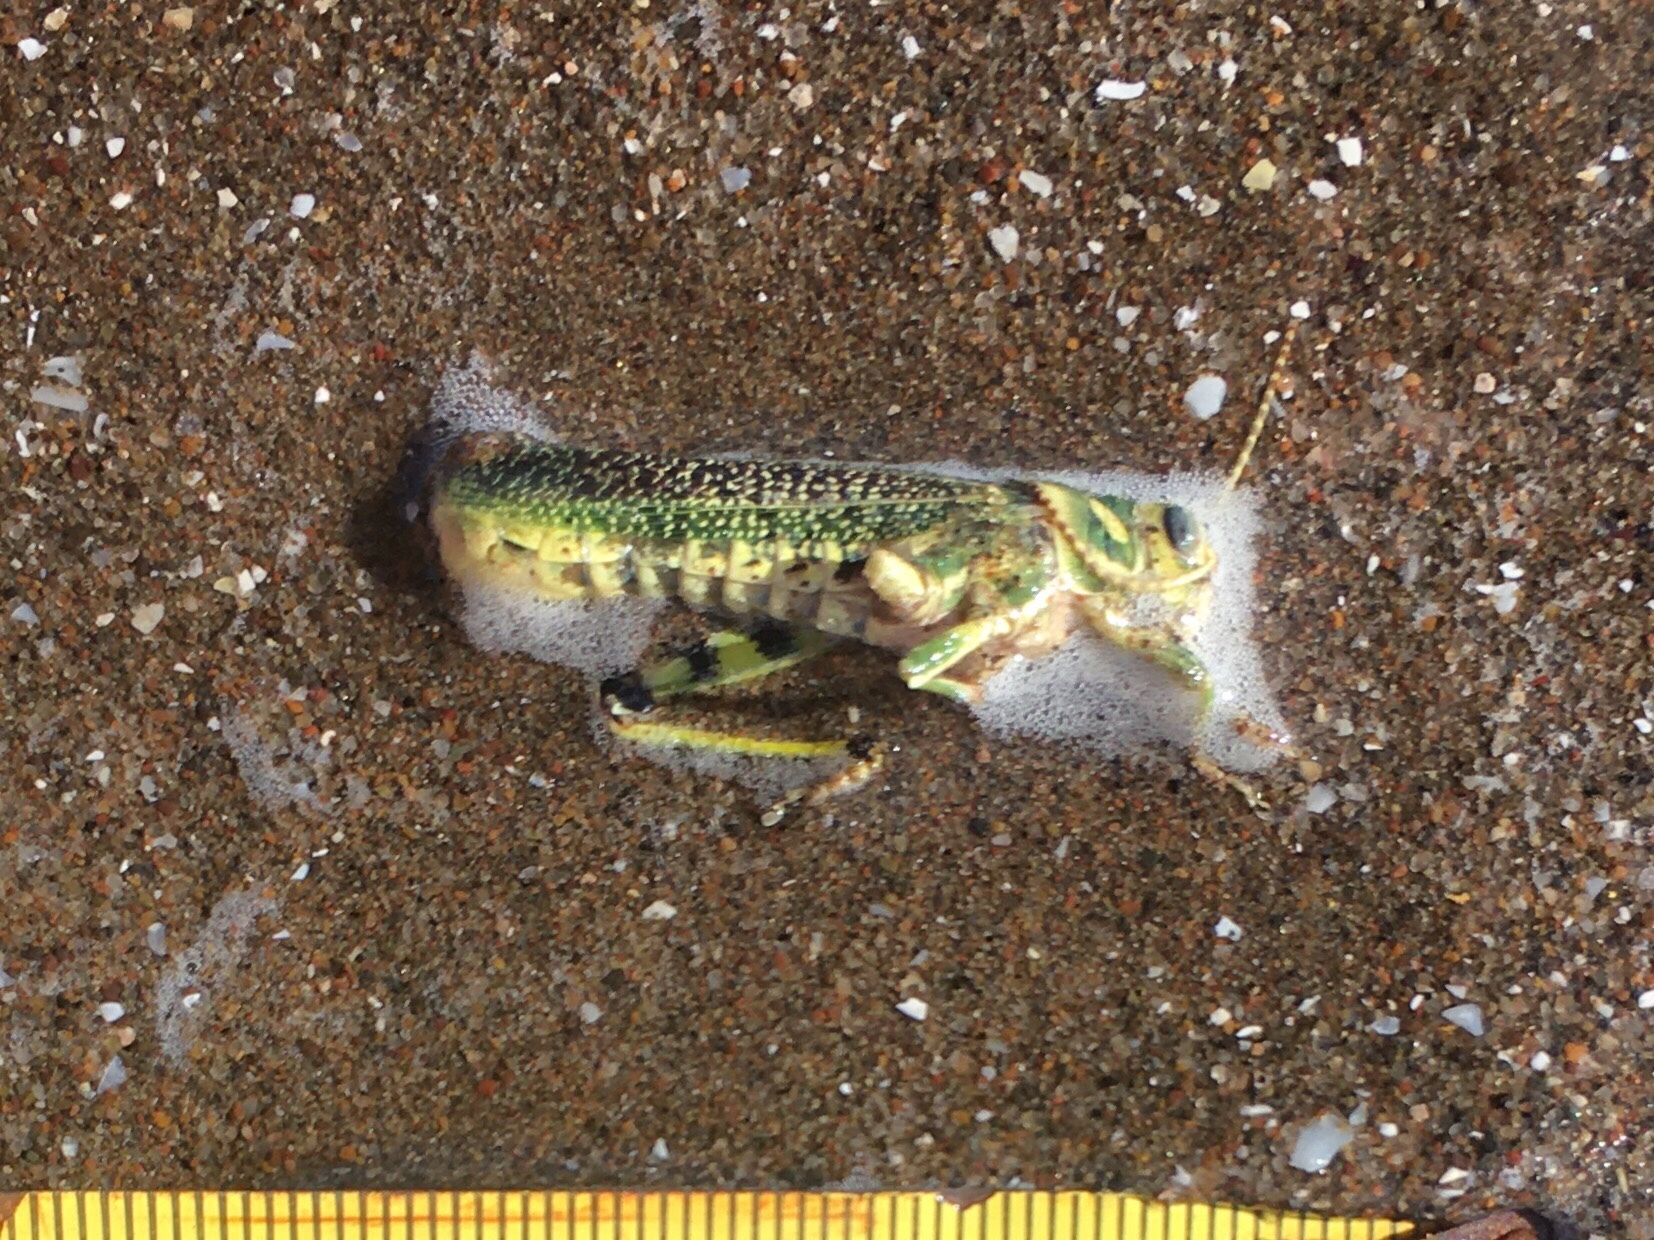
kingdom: Animalia
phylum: Arthropoda
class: Insecta
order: Orthoptera
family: Romaleidae
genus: Diponthus
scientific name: Diponthus argentinus
